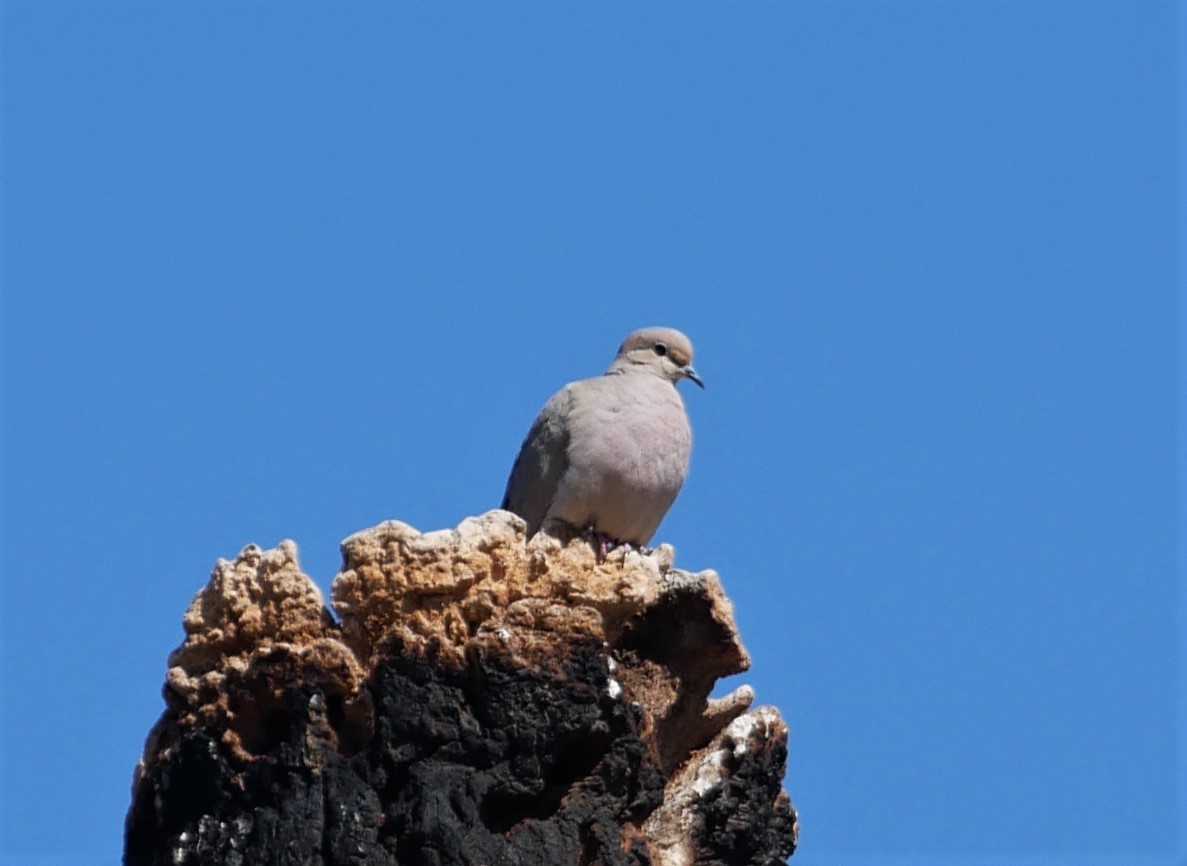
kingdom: Animalia
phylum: Chordata
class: Aves
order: Columbiformes
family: Columbidae
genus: Zenaida
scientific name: Zenaida macroura
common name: Mourning dove
